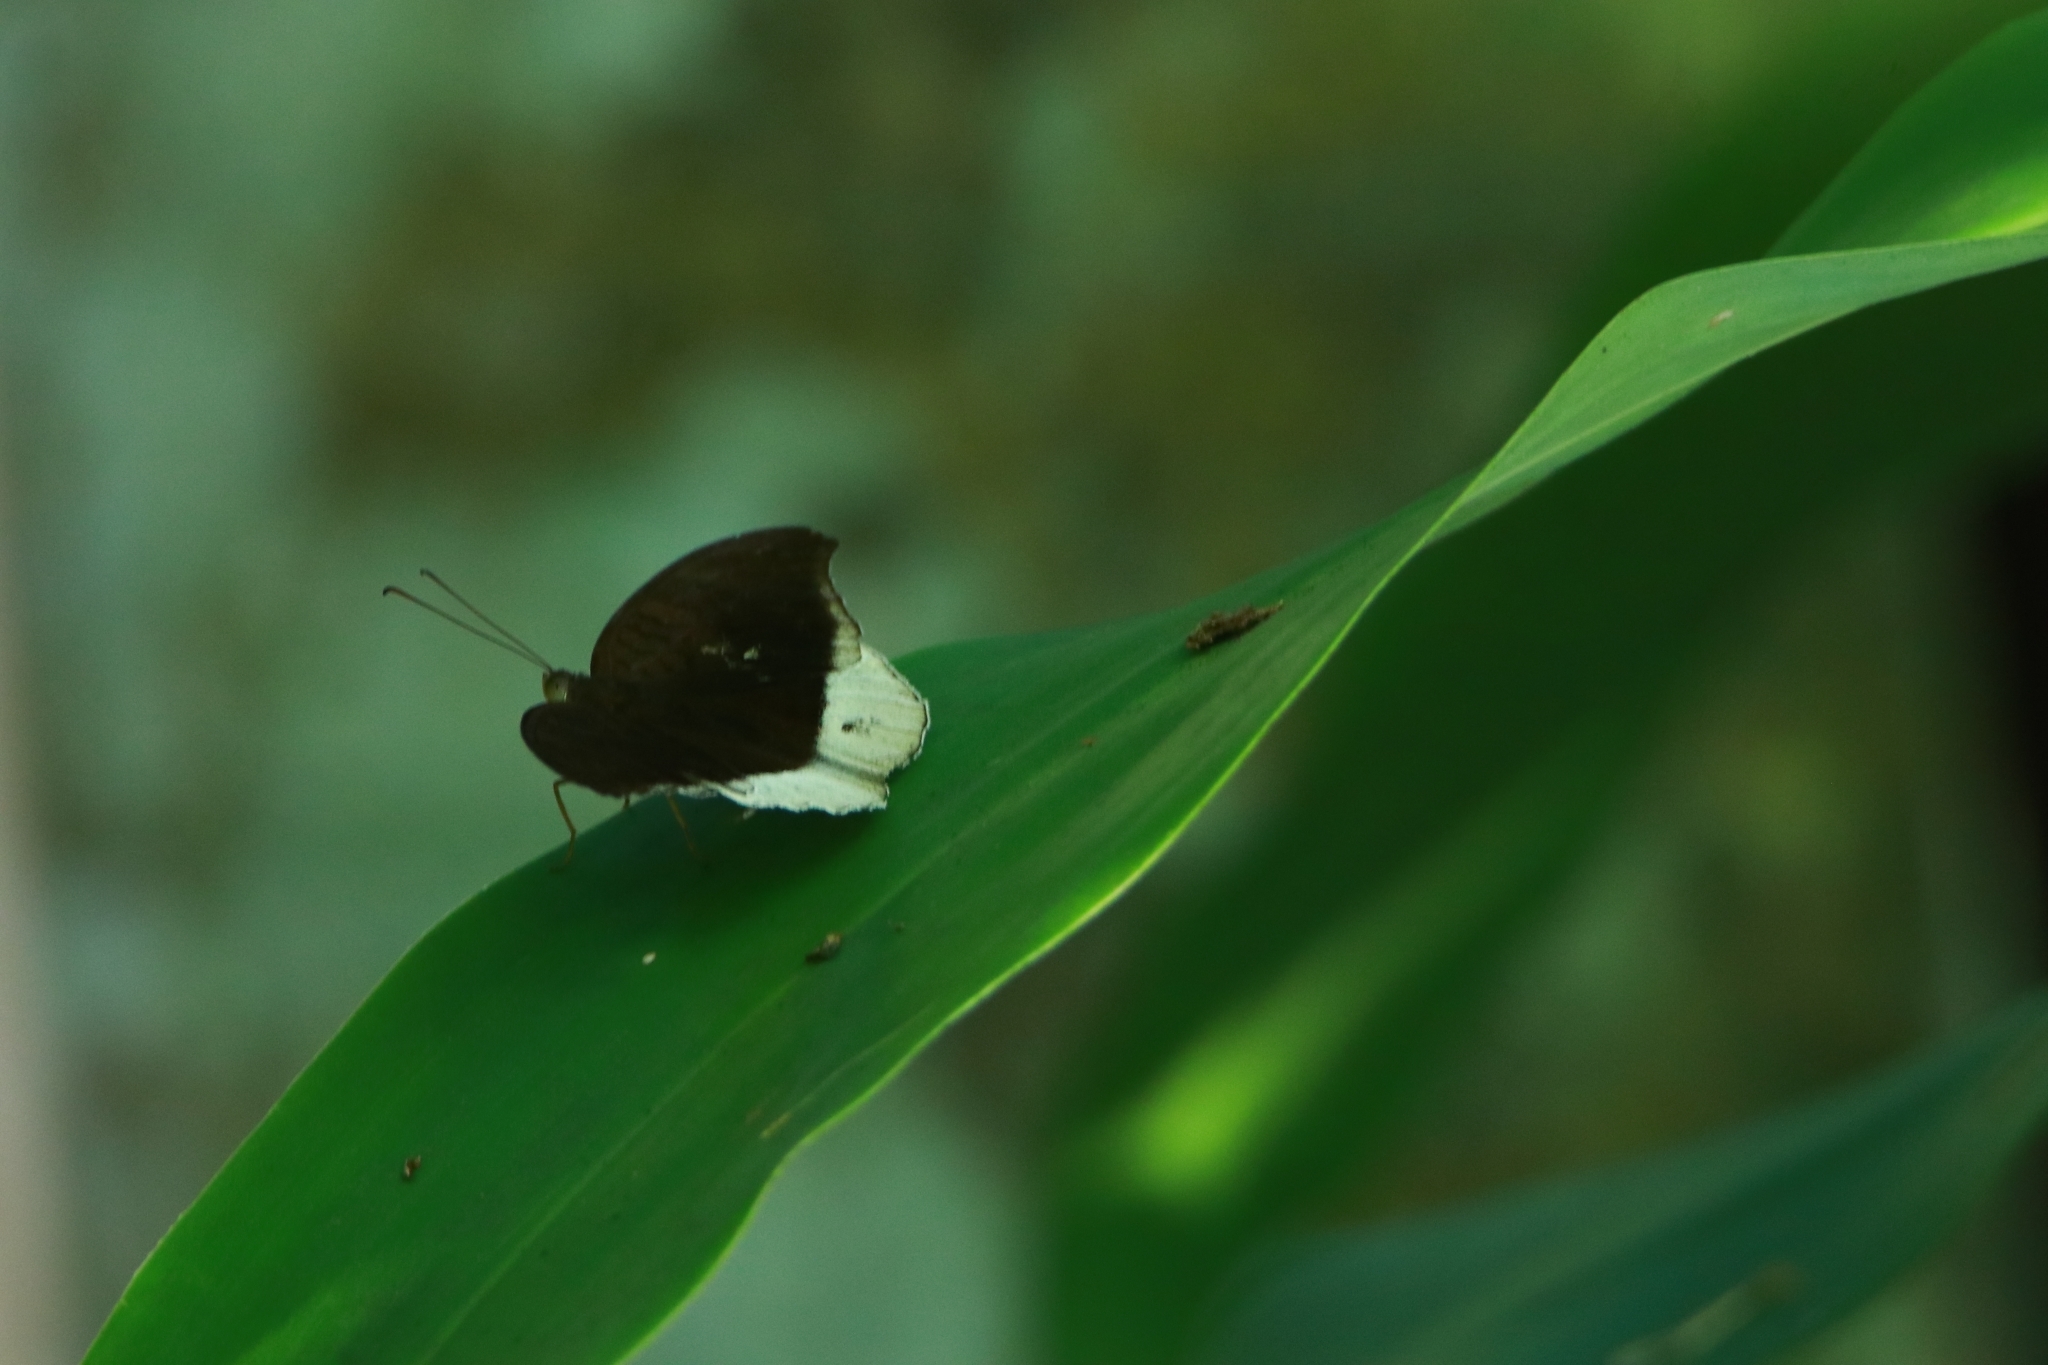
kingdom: Animalia
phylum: Arthropoda
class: Insecta
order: Lepidoptera
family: Nymphalidae
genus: Tanaecia
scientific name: Tanaecia lepidea
